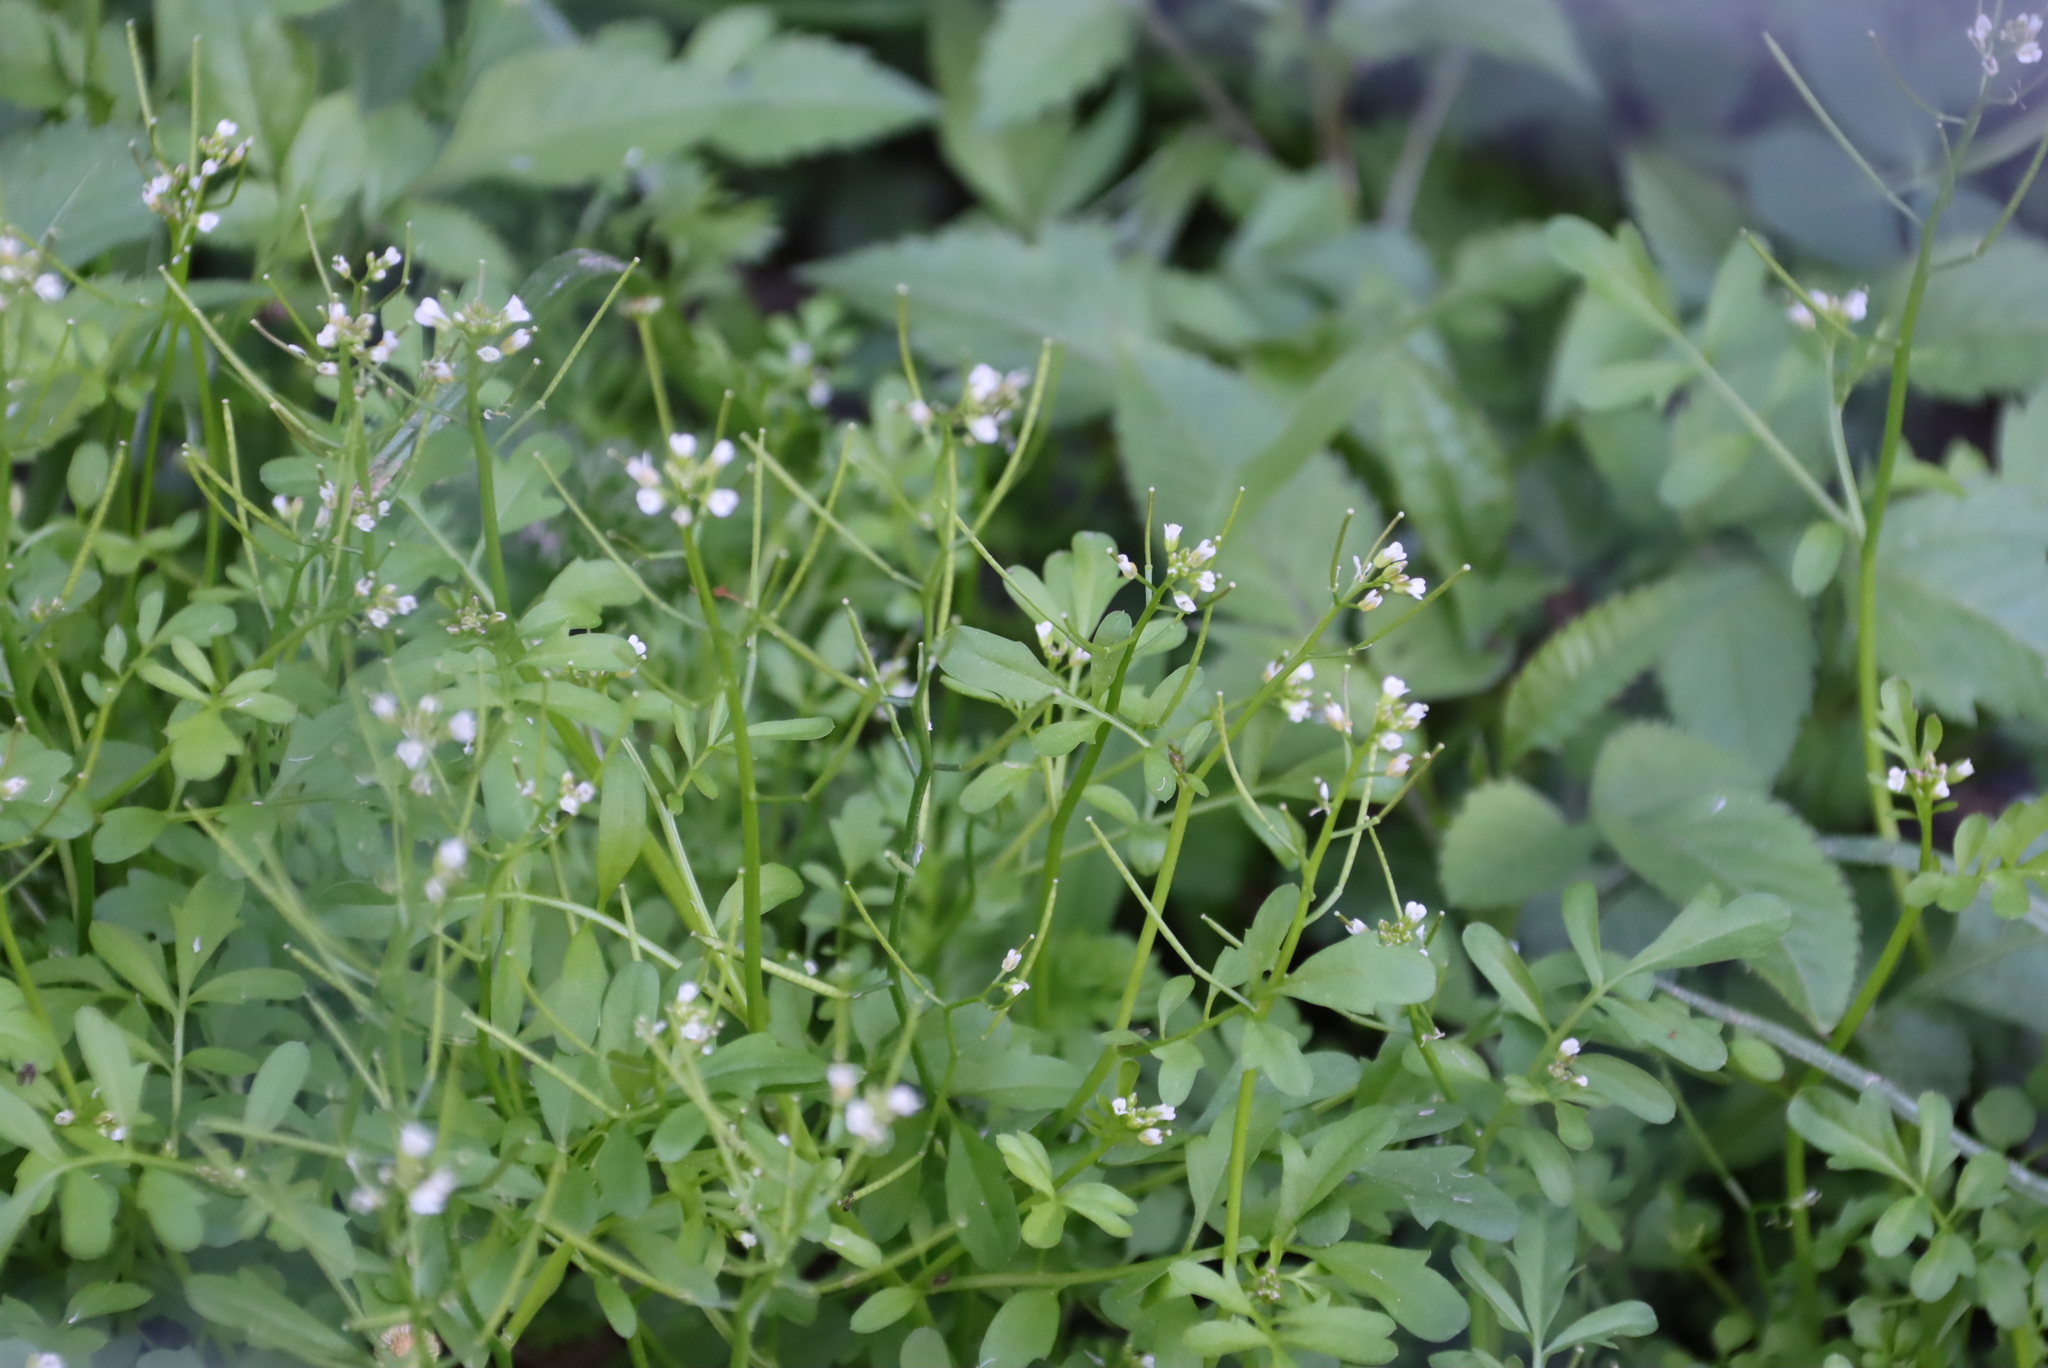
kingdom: Plantae
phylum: Tracheophyta
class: Magnoliopsida
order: Brassicales
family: Brassicaceae
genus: Cardamine
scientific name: Cardamine hirsuta
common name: Hairy bittercress
